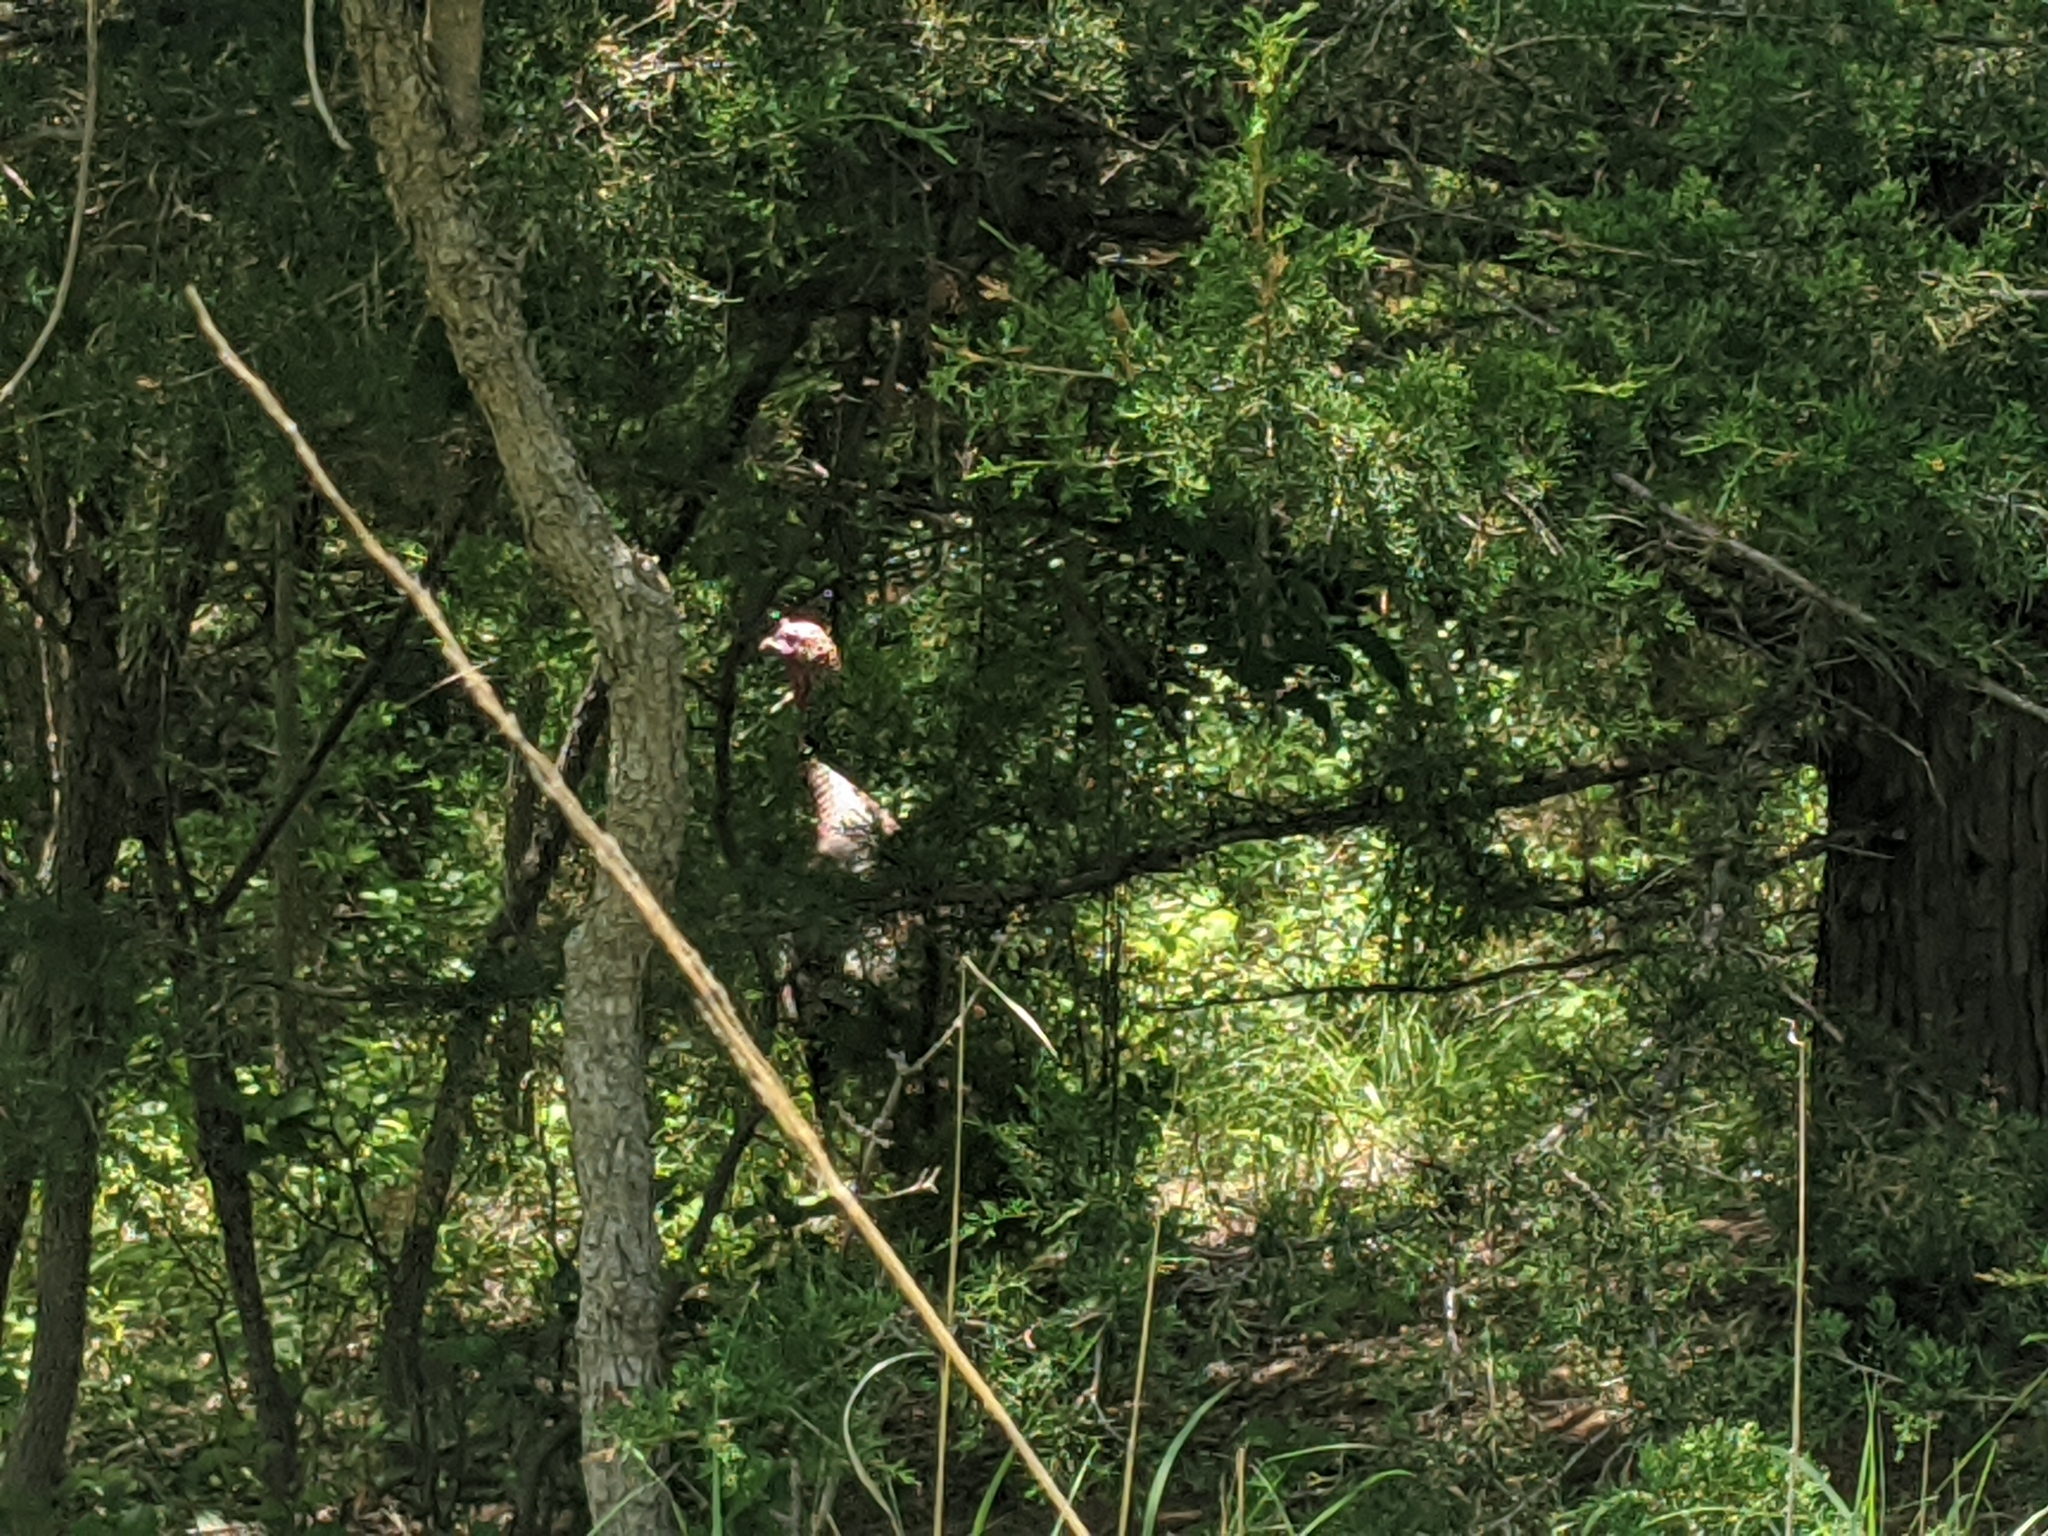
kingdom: Animalia
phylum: Chordata
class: Aves
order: Galliformes
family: Phasianidae
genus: Meleagris
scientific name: Meleagris gallopavo
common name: Wild turkey
